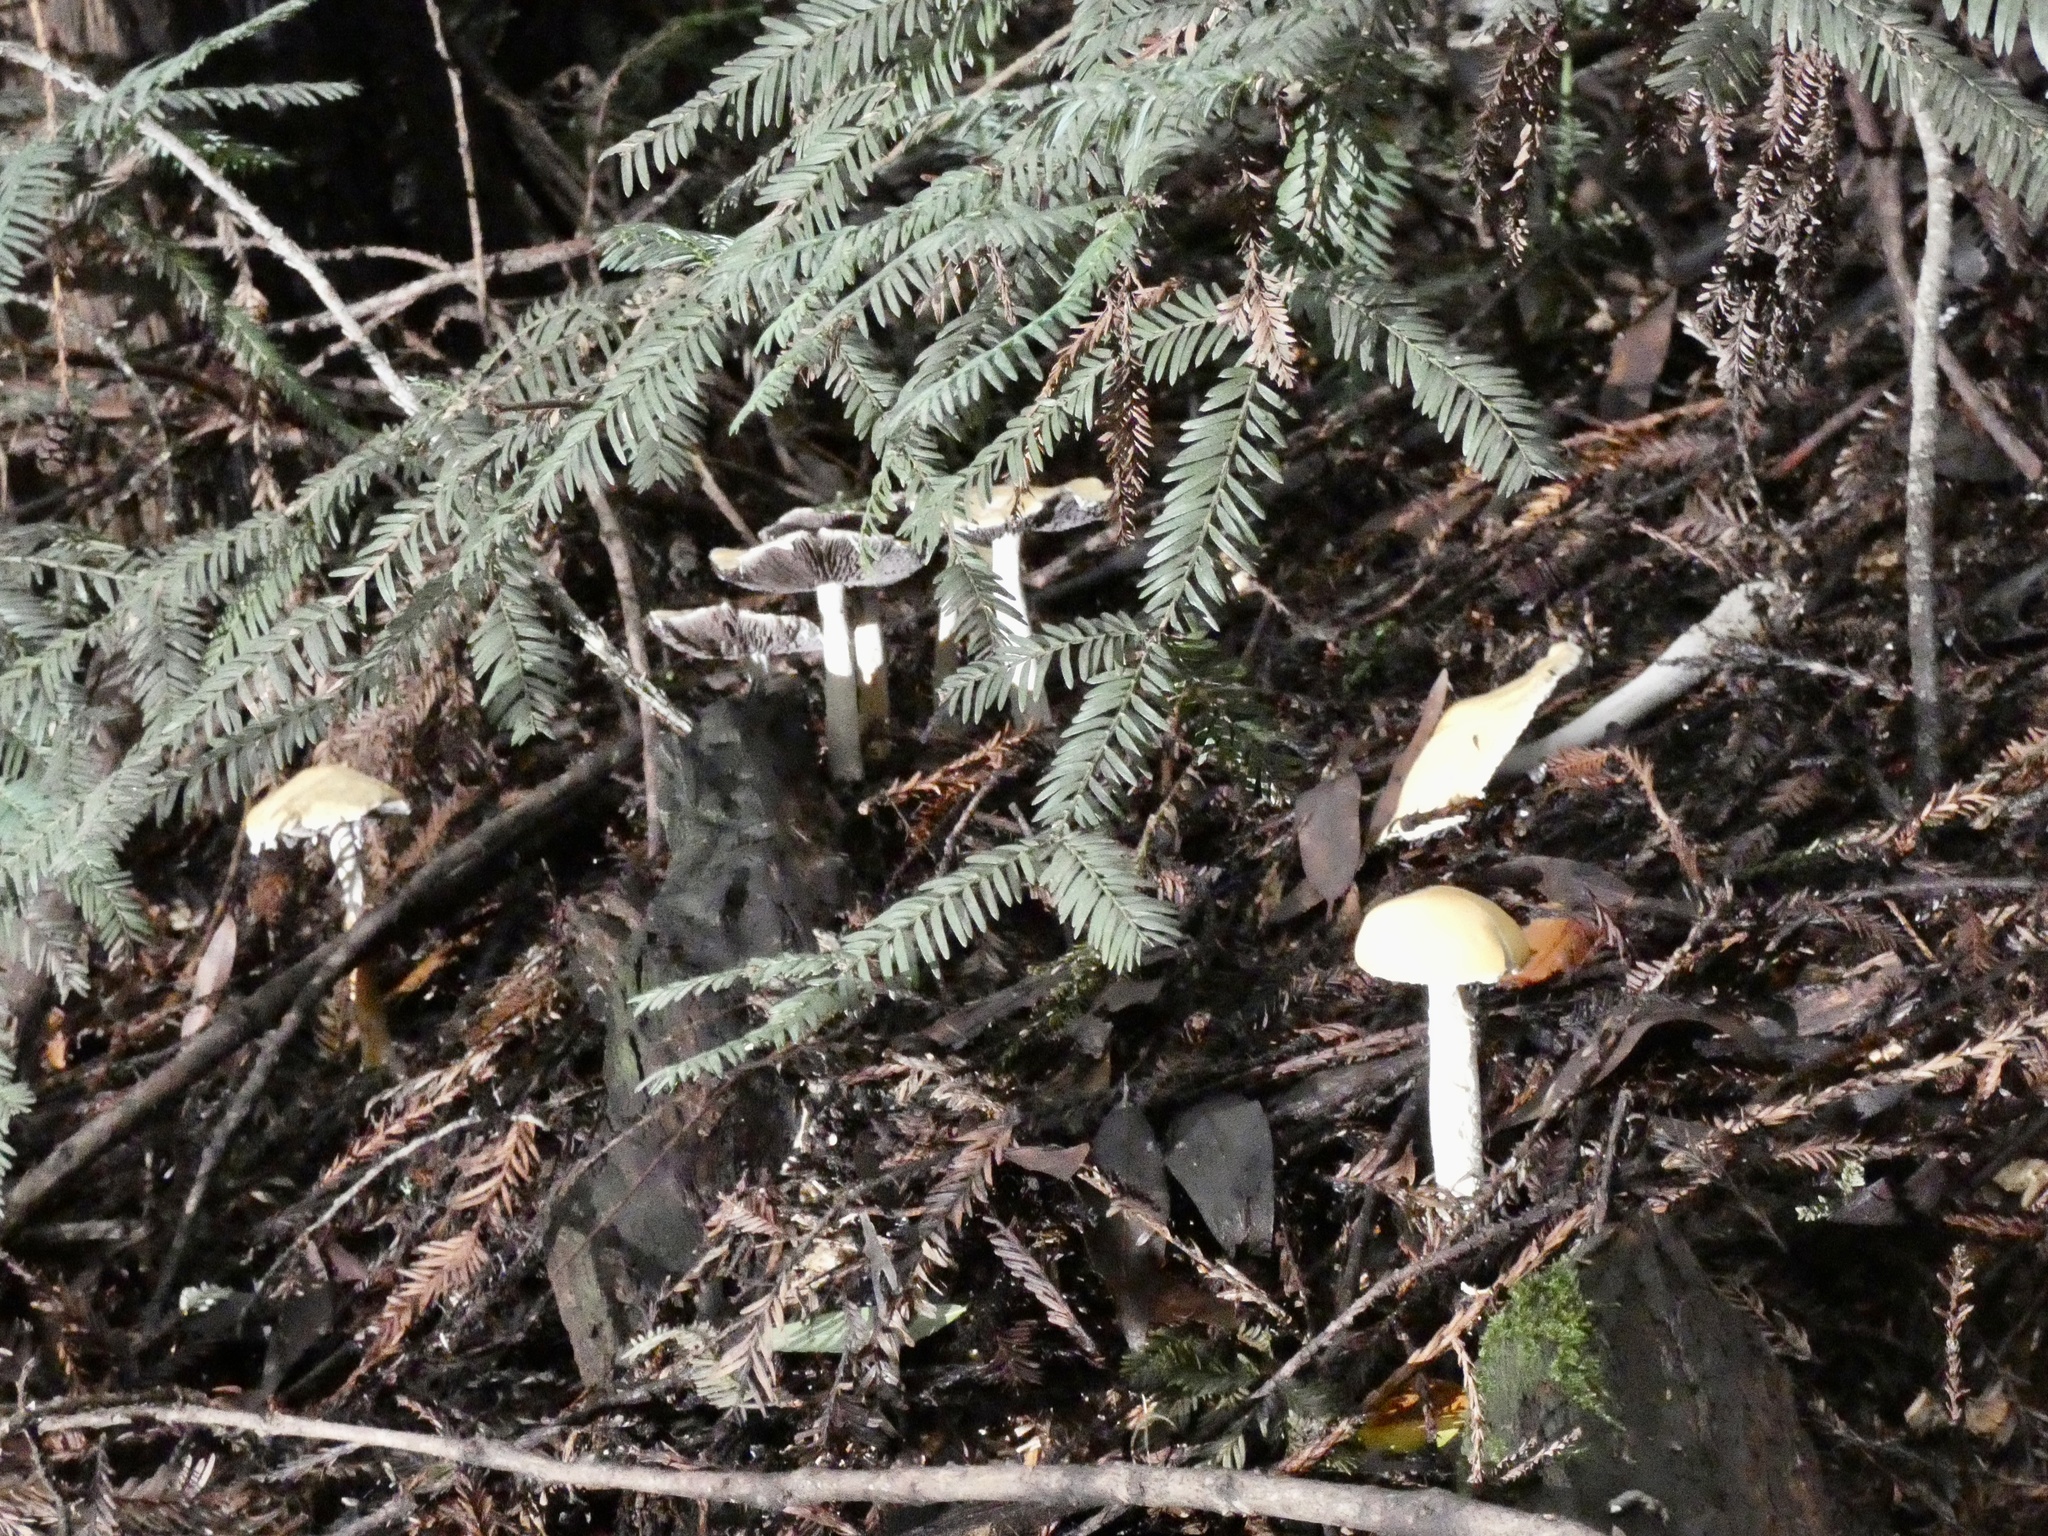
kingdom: Fungi
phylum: Basidiomycota
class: Agaricomycetes
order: Agaricales
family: Strophariaceae
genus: Stropharia
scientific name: Stropharia ambigua
